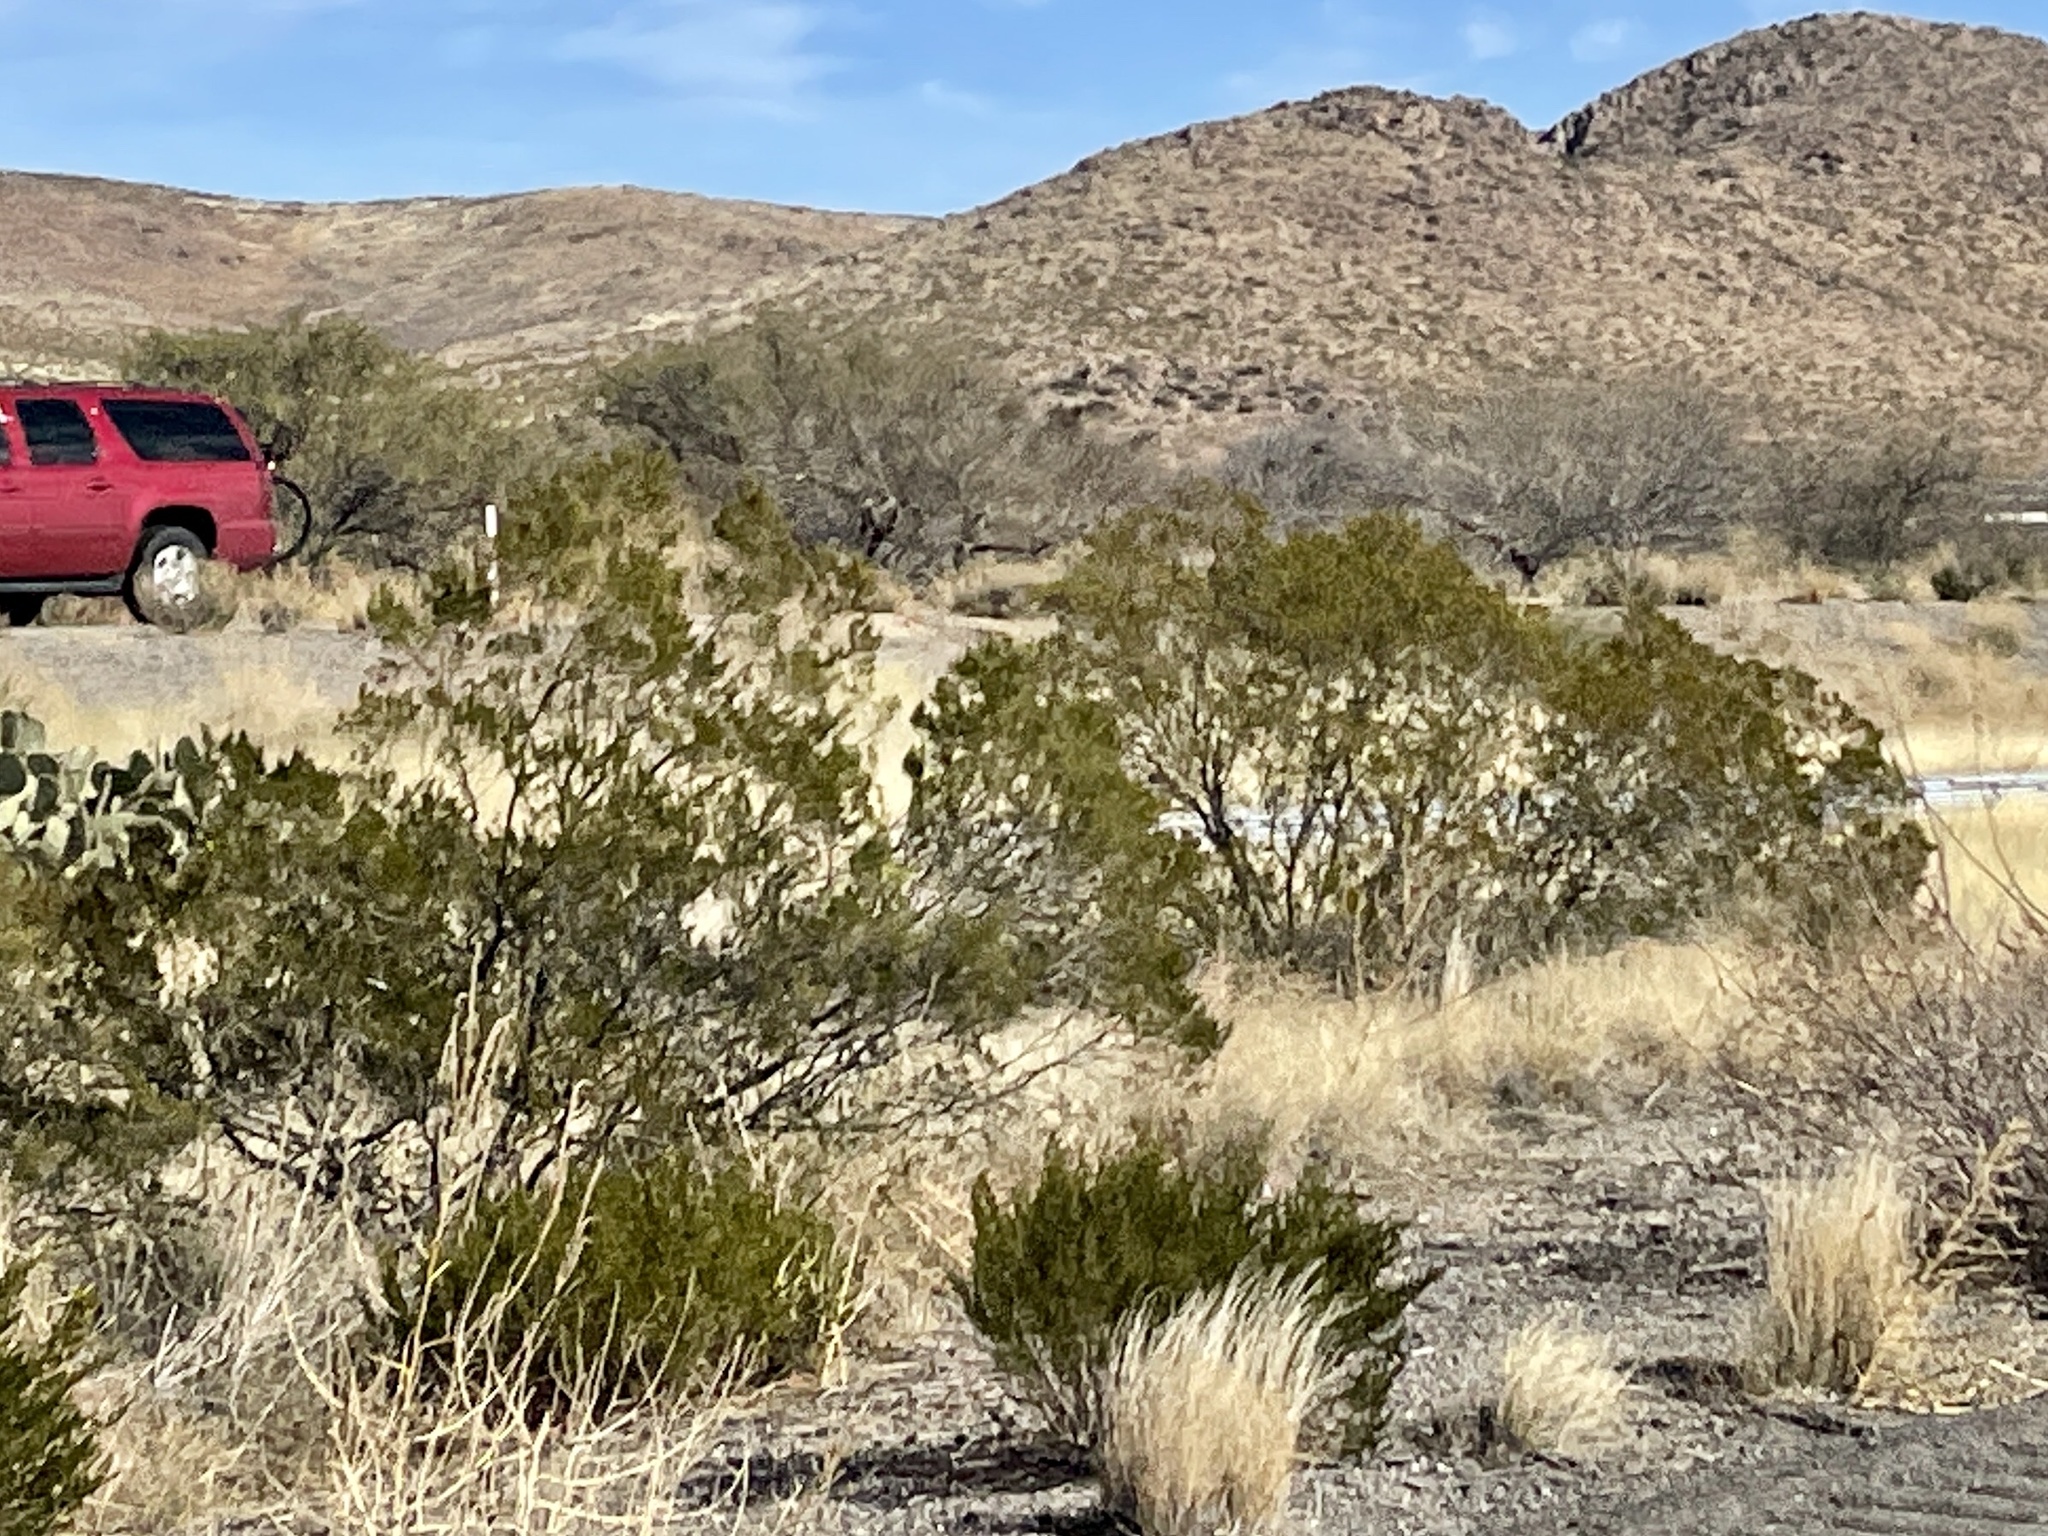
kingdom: Plantae
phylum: Tracheophyta
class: Magnoliopsida
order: Zygophyllales
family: Zygophyllaceae
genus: Larrea
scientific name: Larrea tridentata
